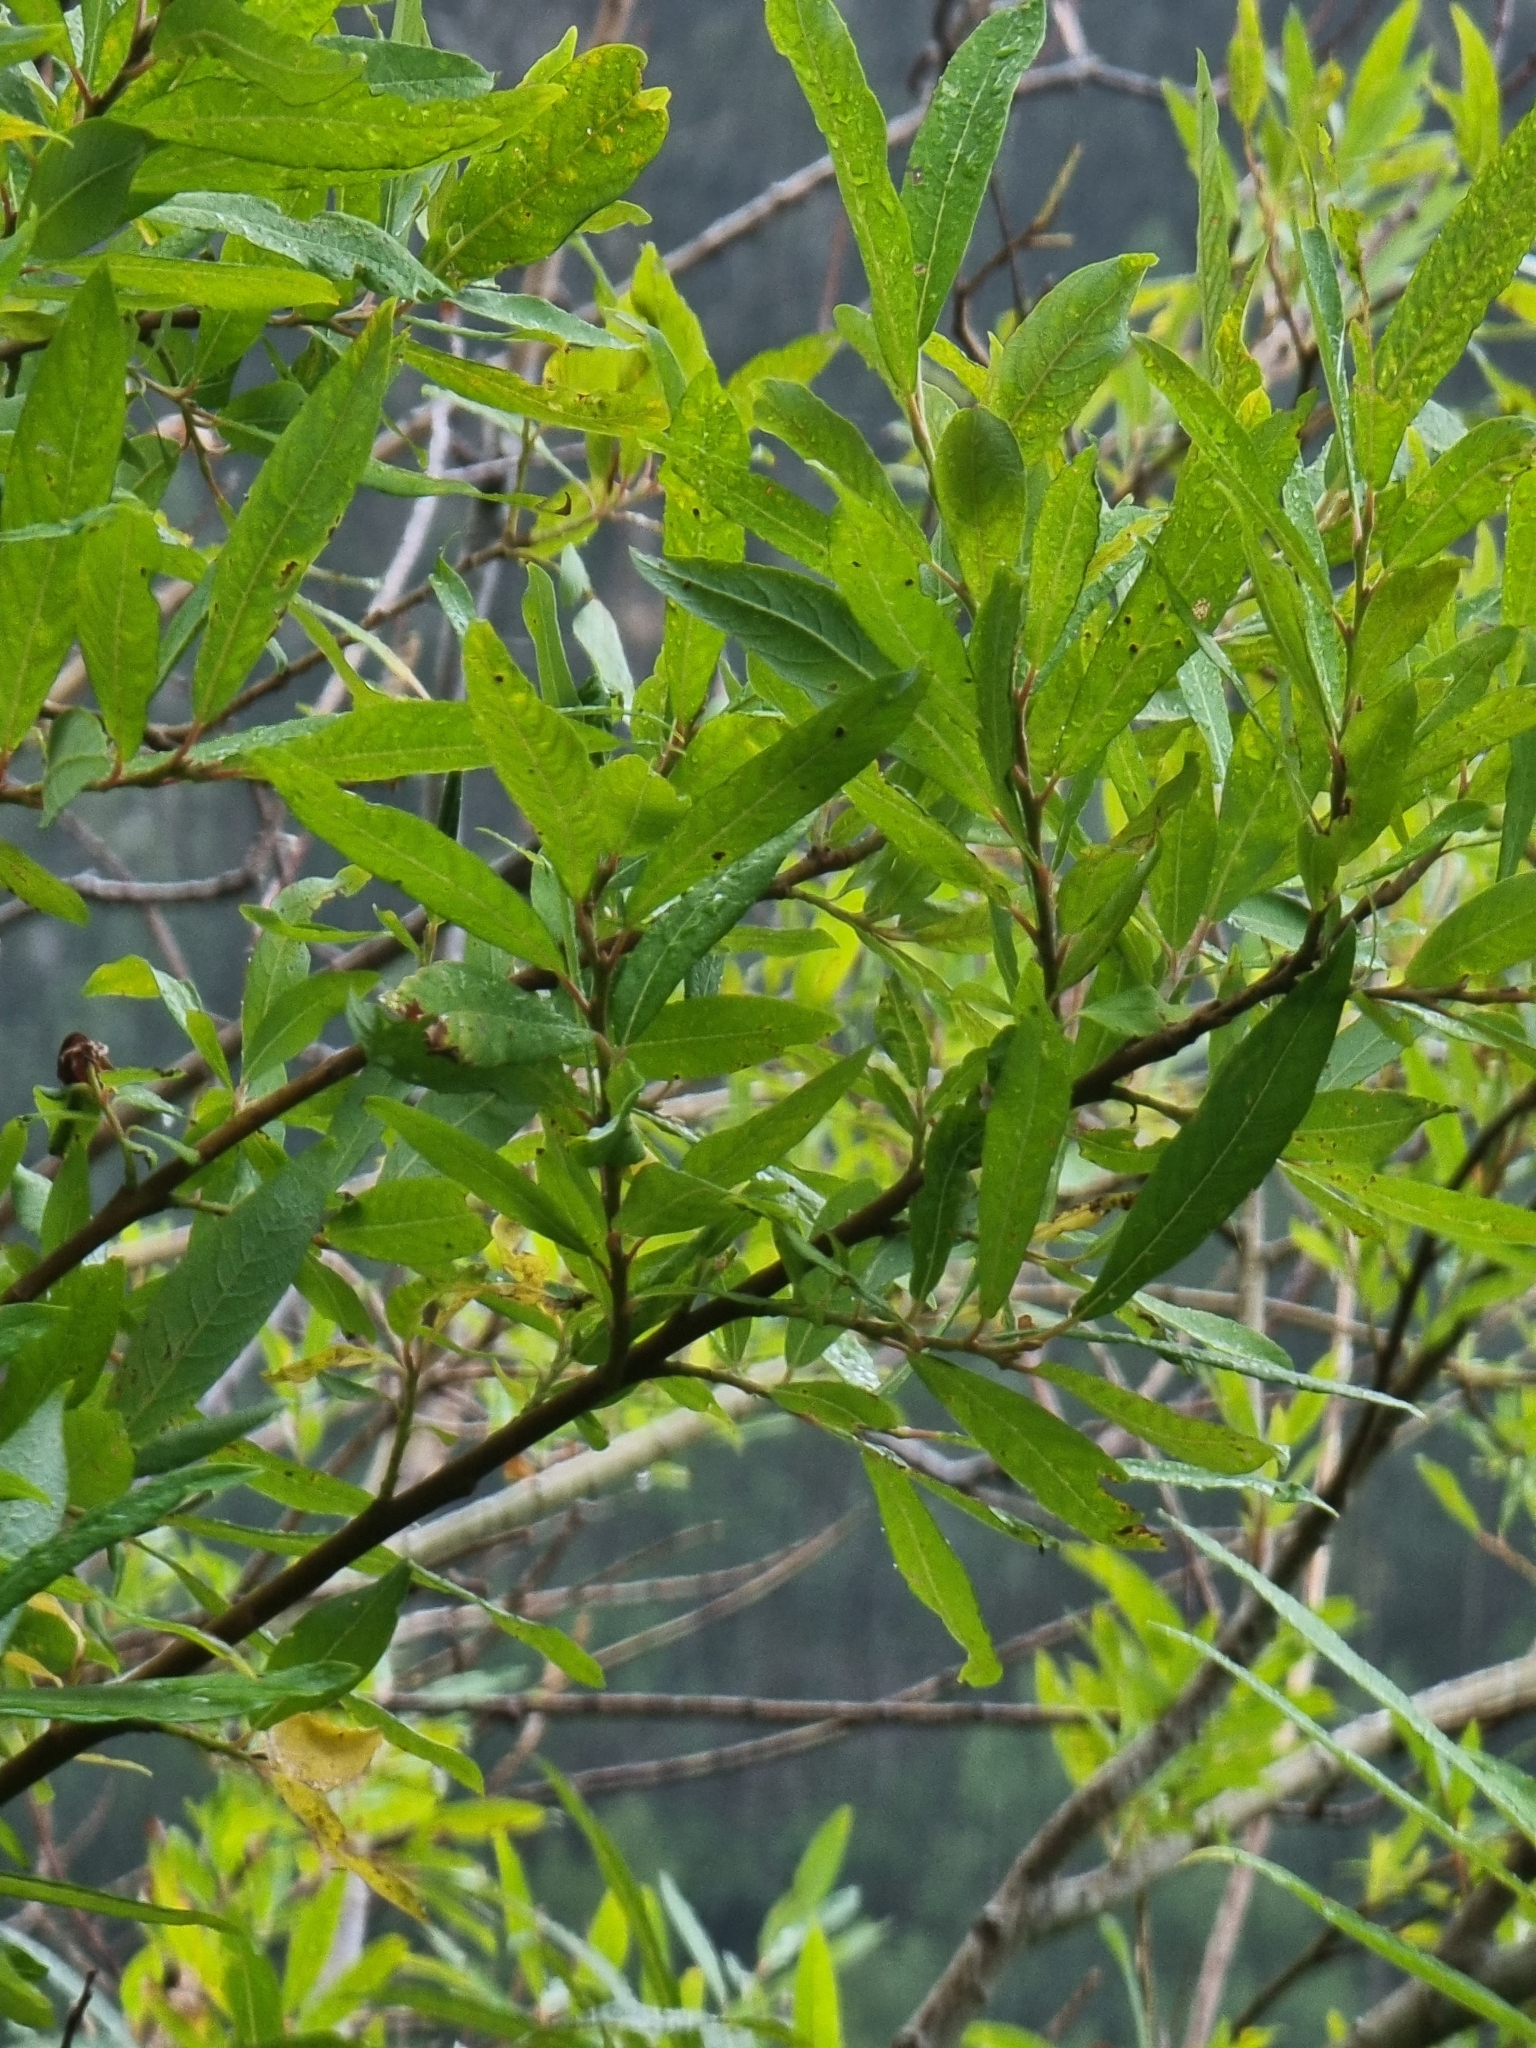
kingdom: Plantae
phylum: Tracheophyta
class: Magnoliopsida
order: Malpighiales
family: Salicaceae
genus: Salix
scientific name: Salix canariensis
